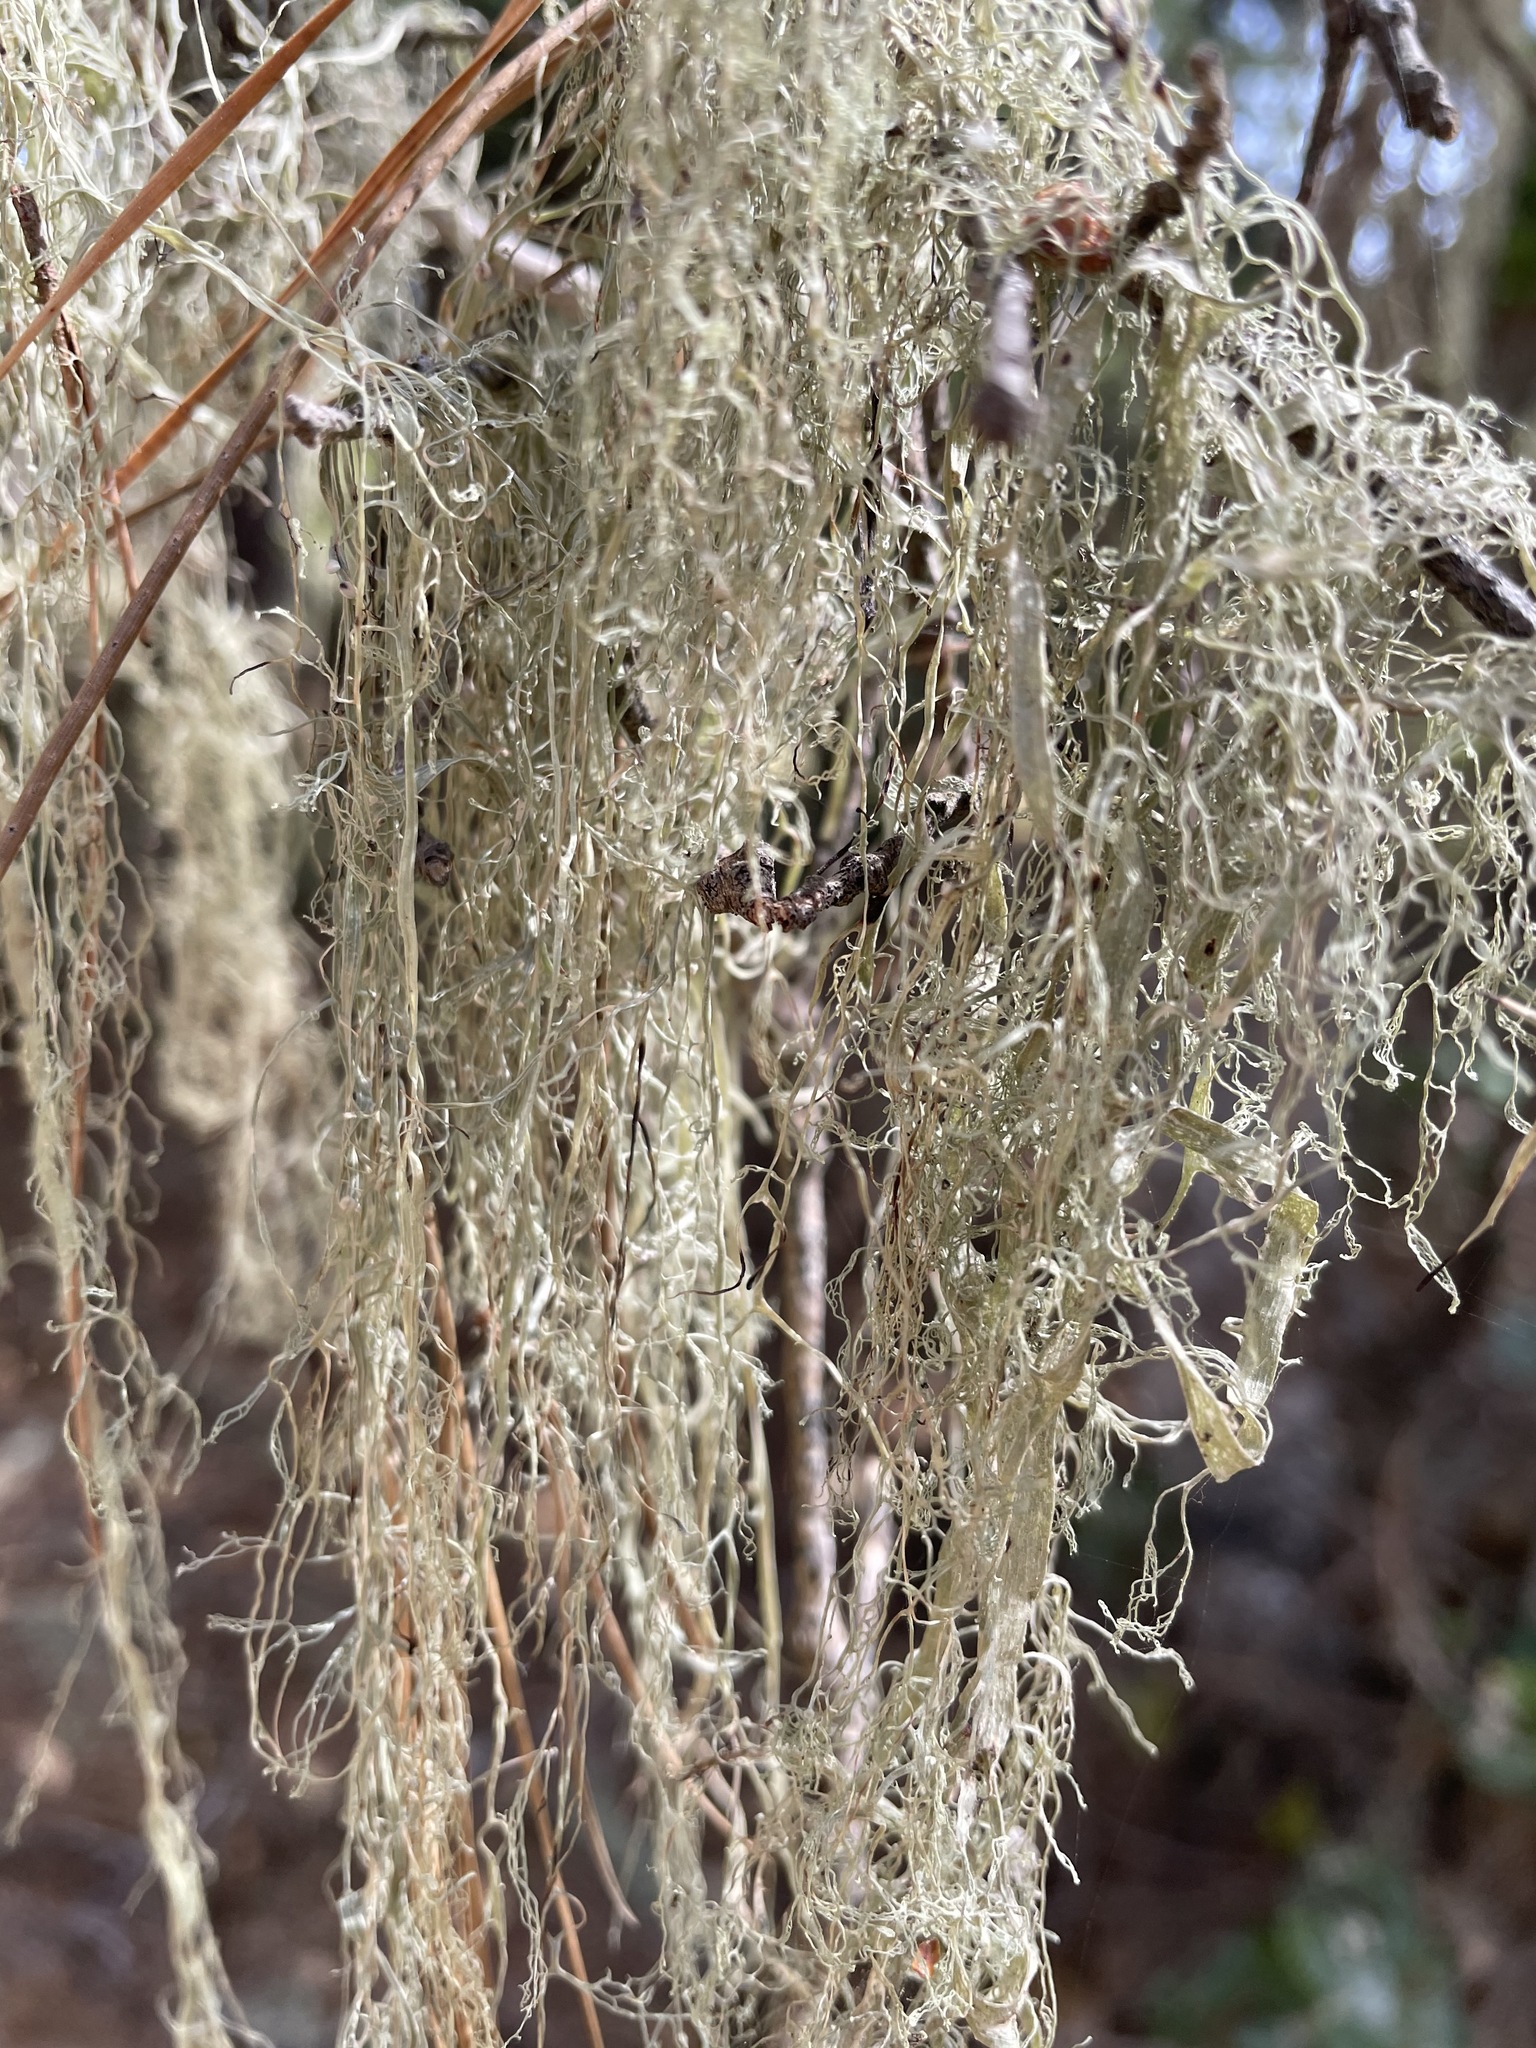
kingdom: Fungi
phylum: Ascomycota
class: Lecanoromycetes
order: Lecanorales
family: Ramalinaceae
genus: Ramalina
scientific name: Ramalina menziesii
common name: Lace lichen
